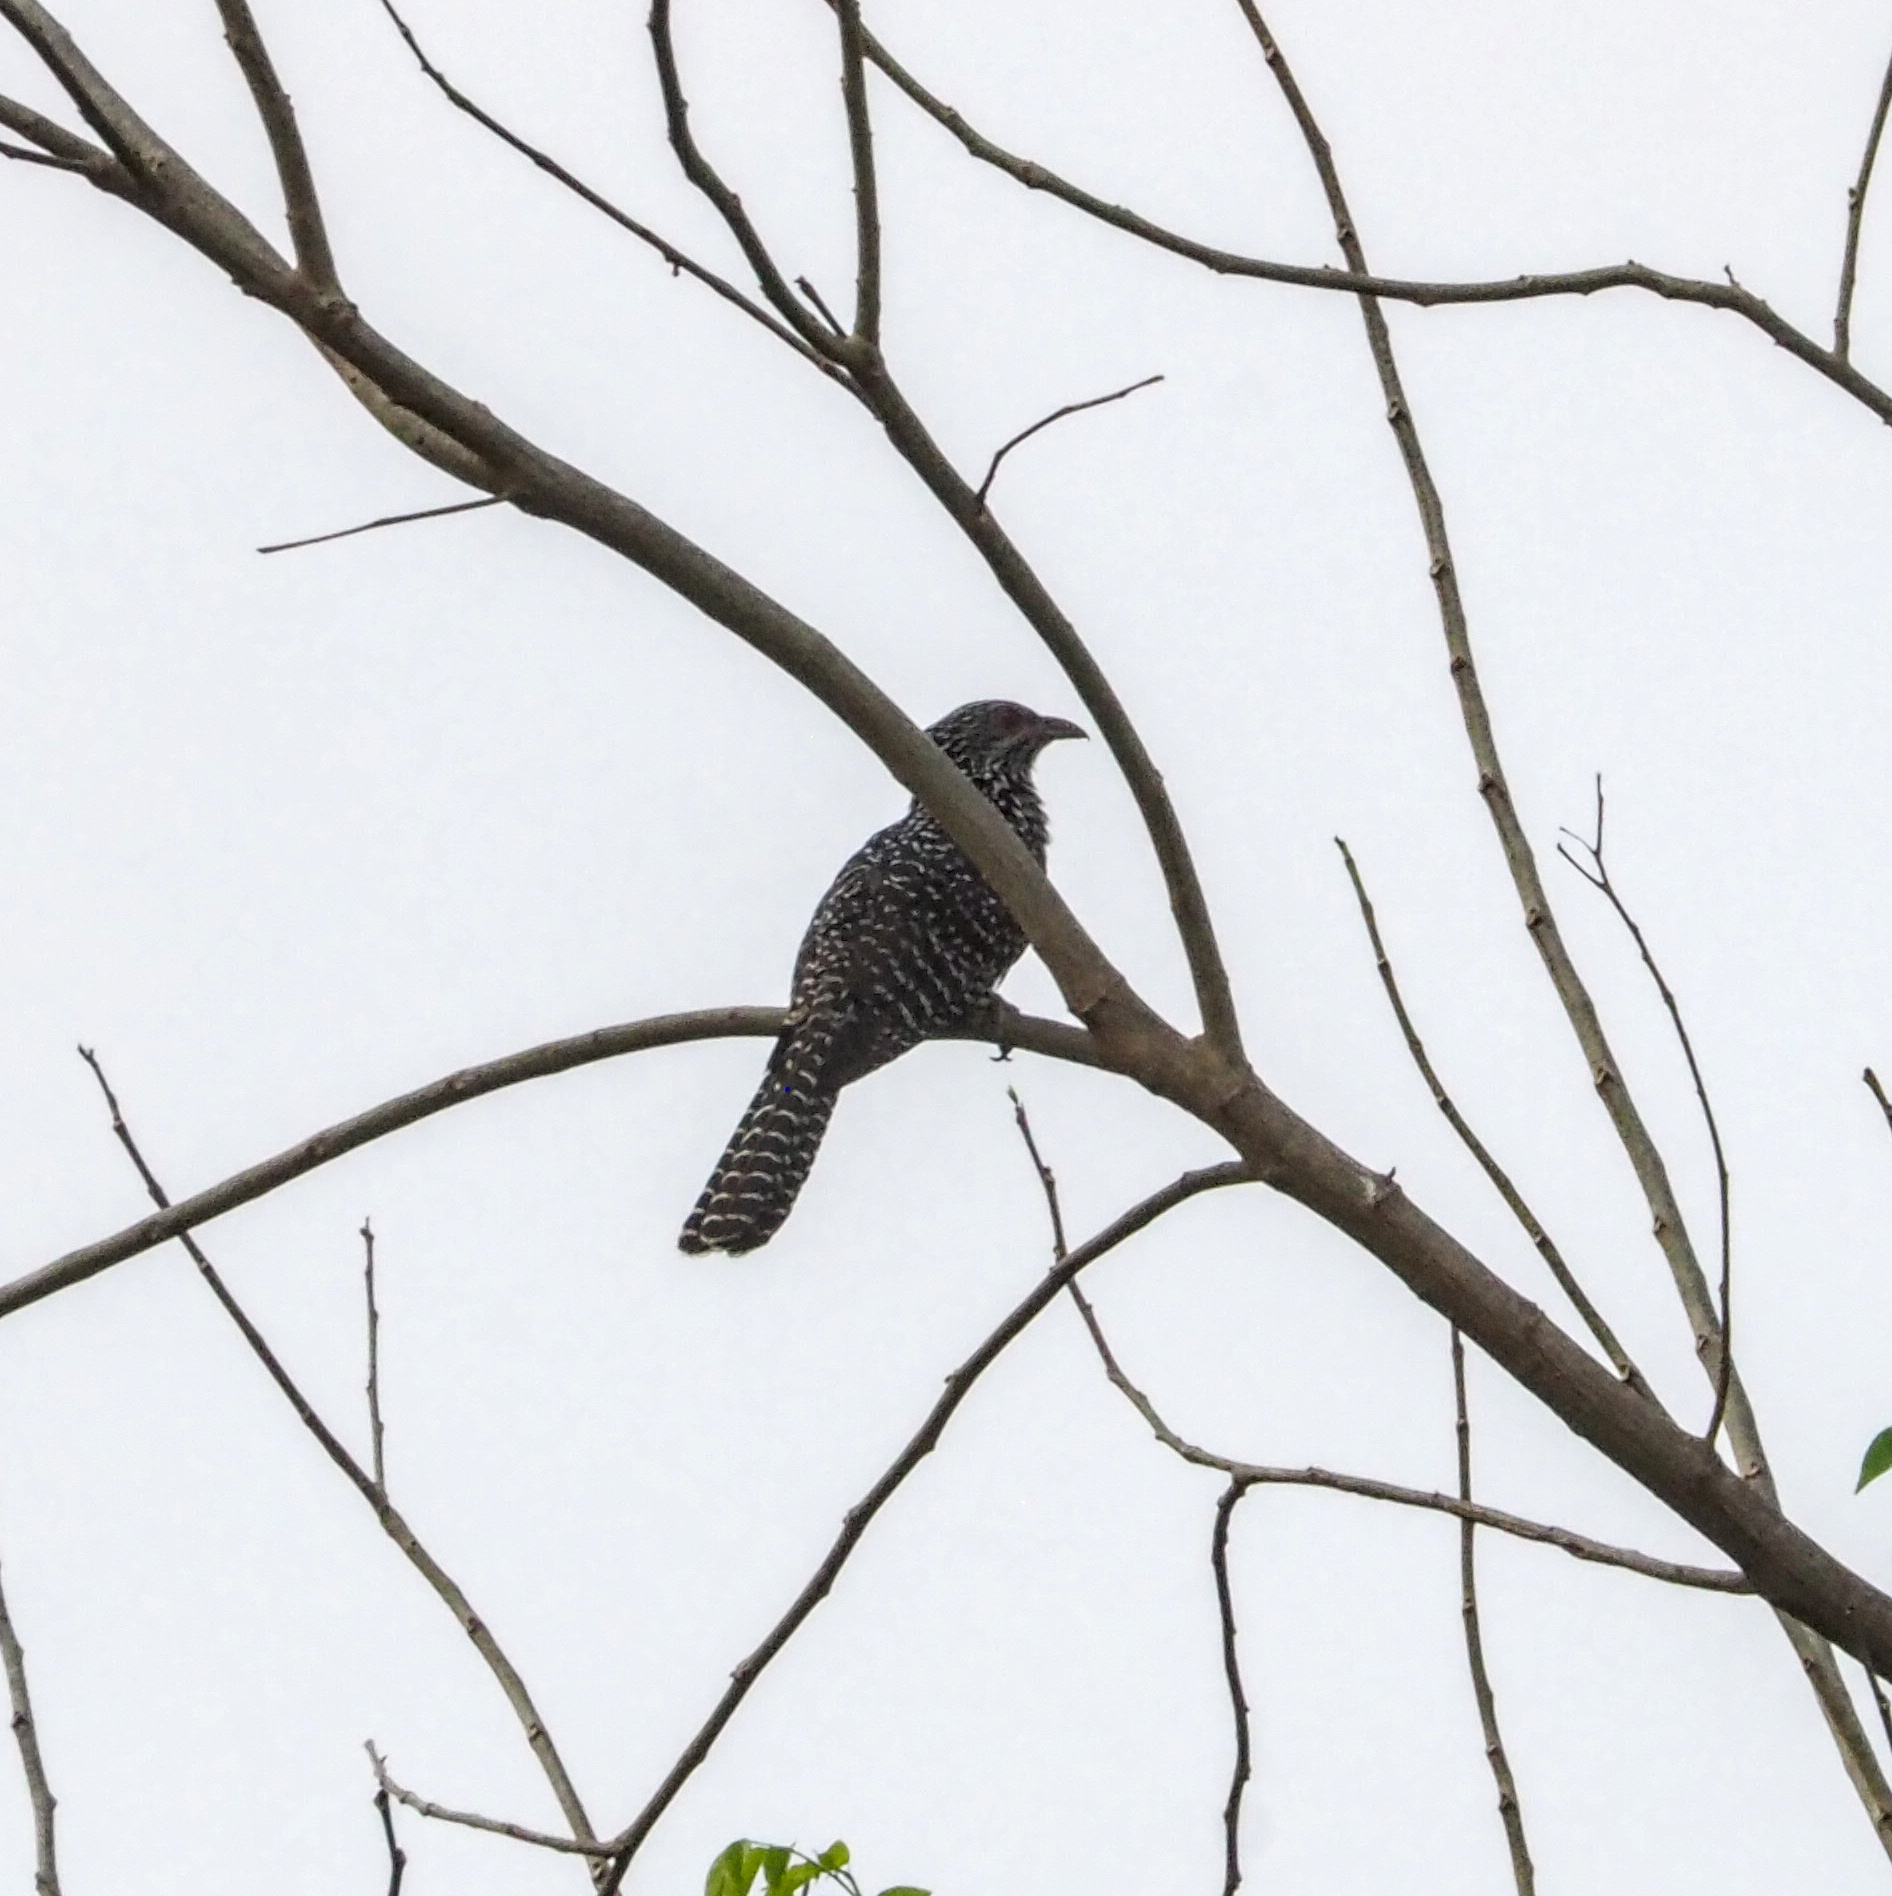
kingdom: Animalia
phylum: Chordata
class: Aves
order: Cuculiformes
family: Cuculidae
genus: Eudynamys
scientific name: Eudynamys scolopaceus
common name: Asian koel
